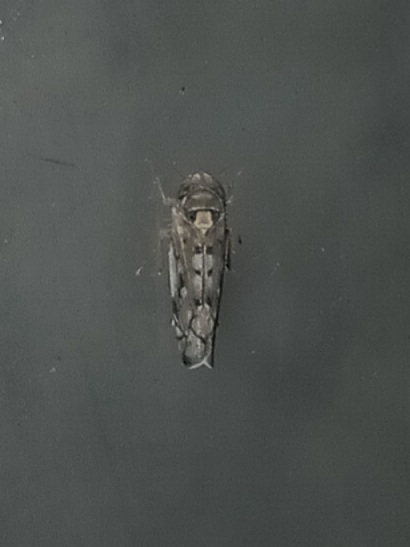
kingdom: Animalia
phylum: Arthropoda
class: Insecta
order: Hemiptera
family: Cicadellidae
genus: Scaphoideus
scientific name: Scaphoideus opalinus
